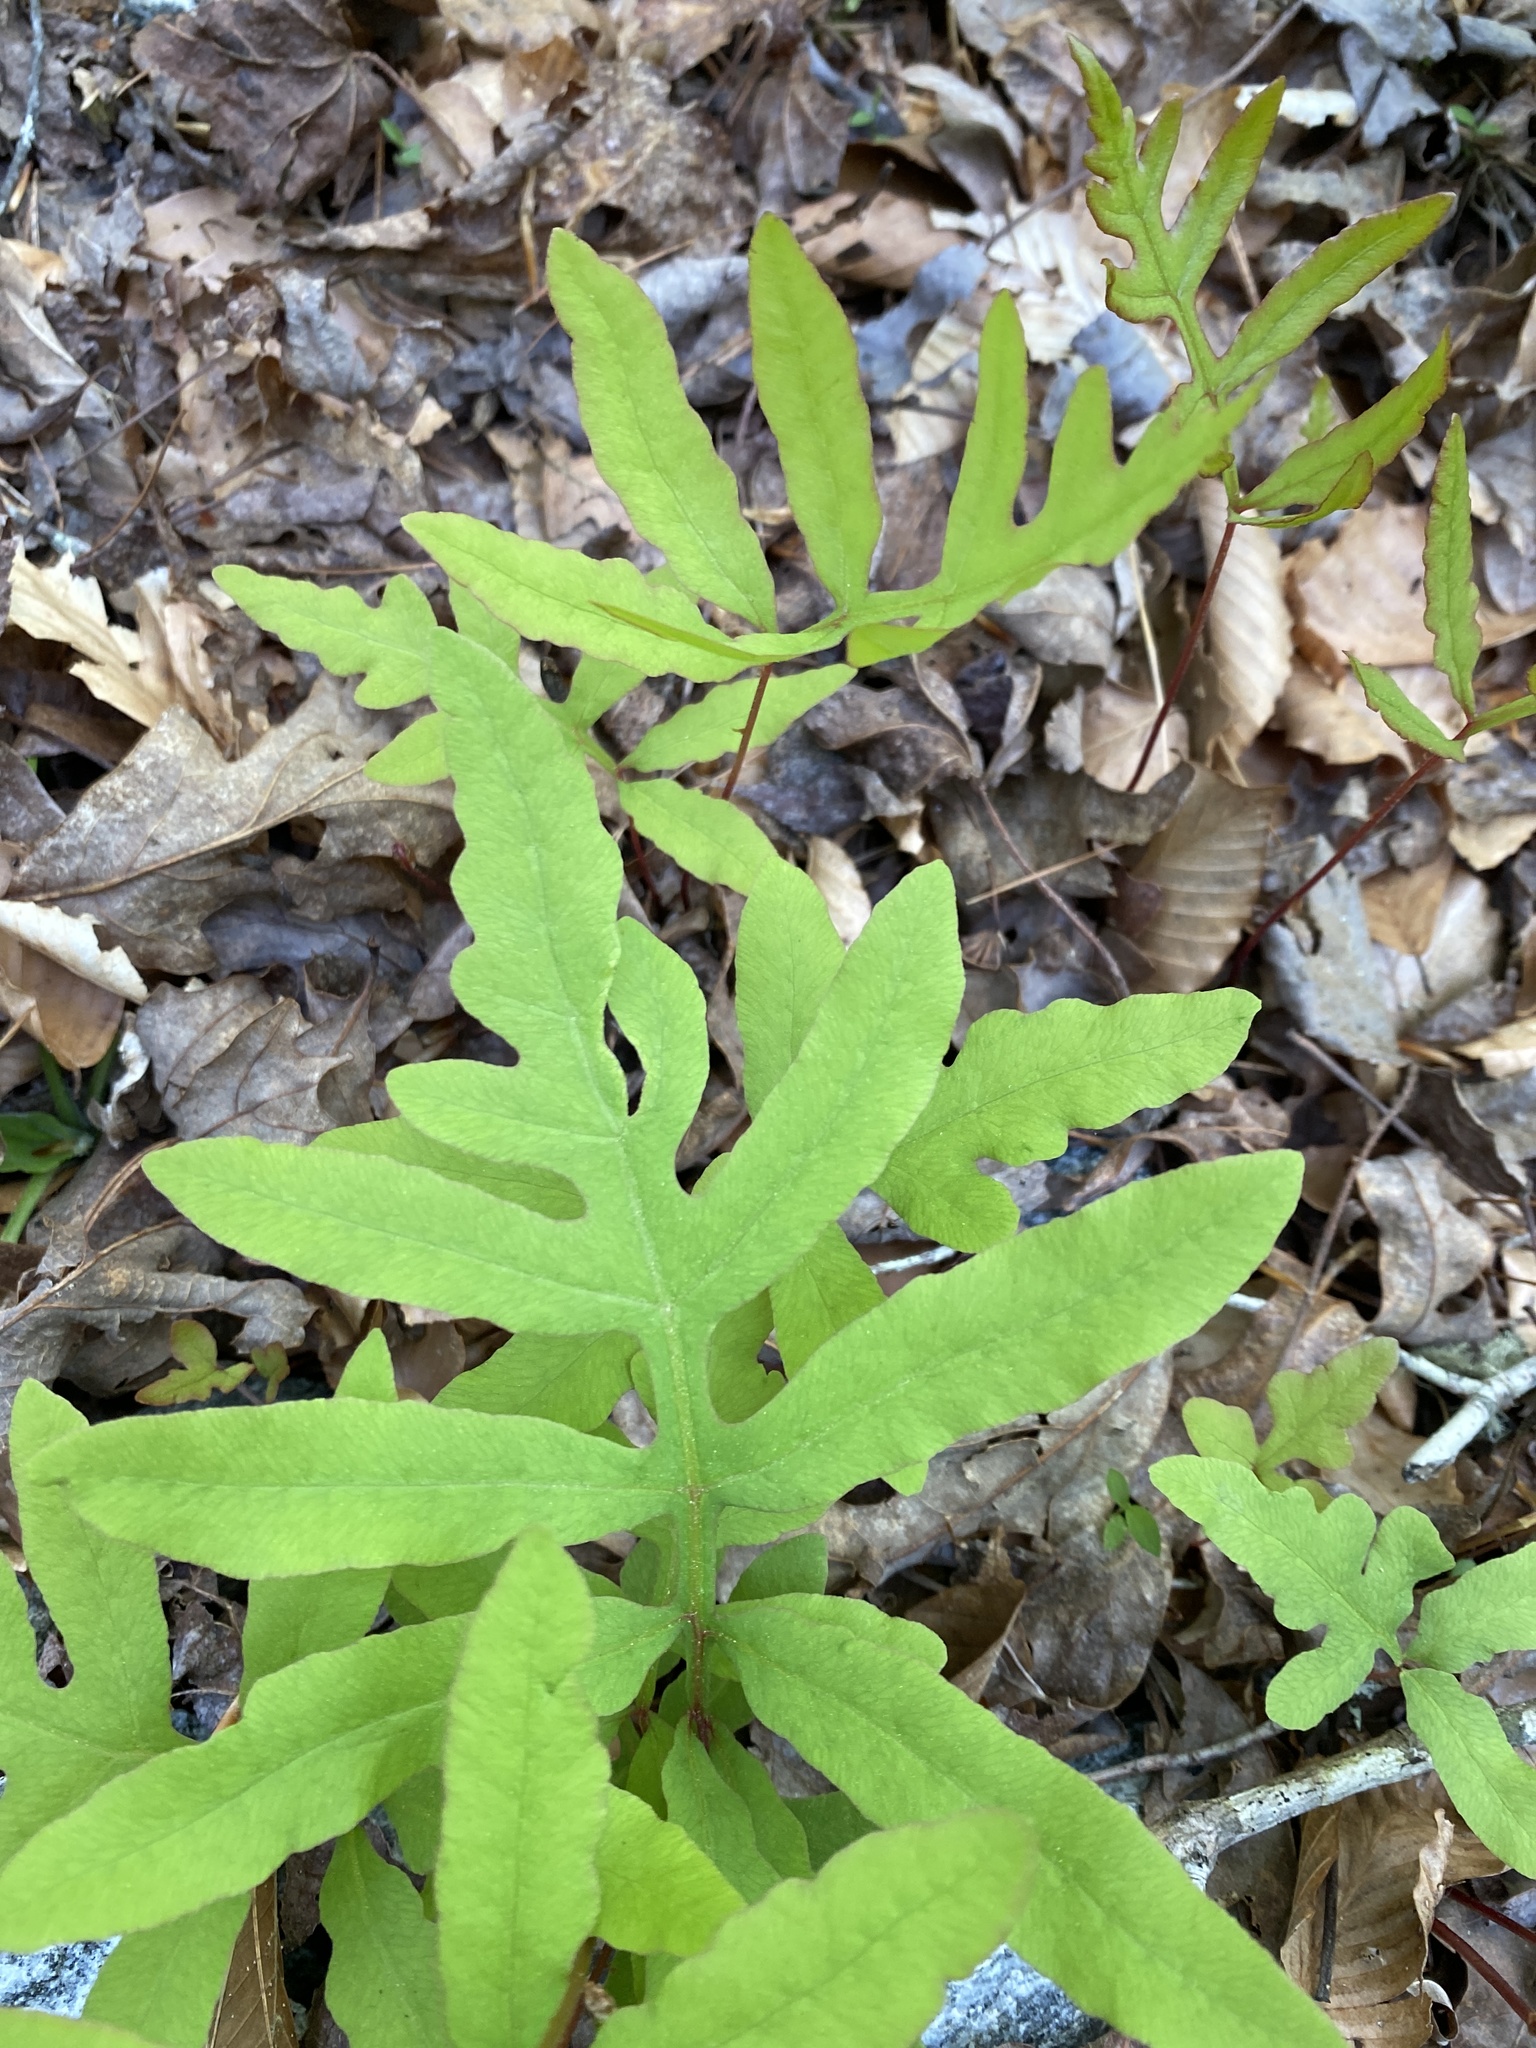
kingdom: Plantae
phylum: Tracheophyta
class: Polypodiopsida
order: Polypodiales
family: Onocleaceae
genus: Onoclea
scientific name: Onoclea sensibilis
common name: Sensitive fern
